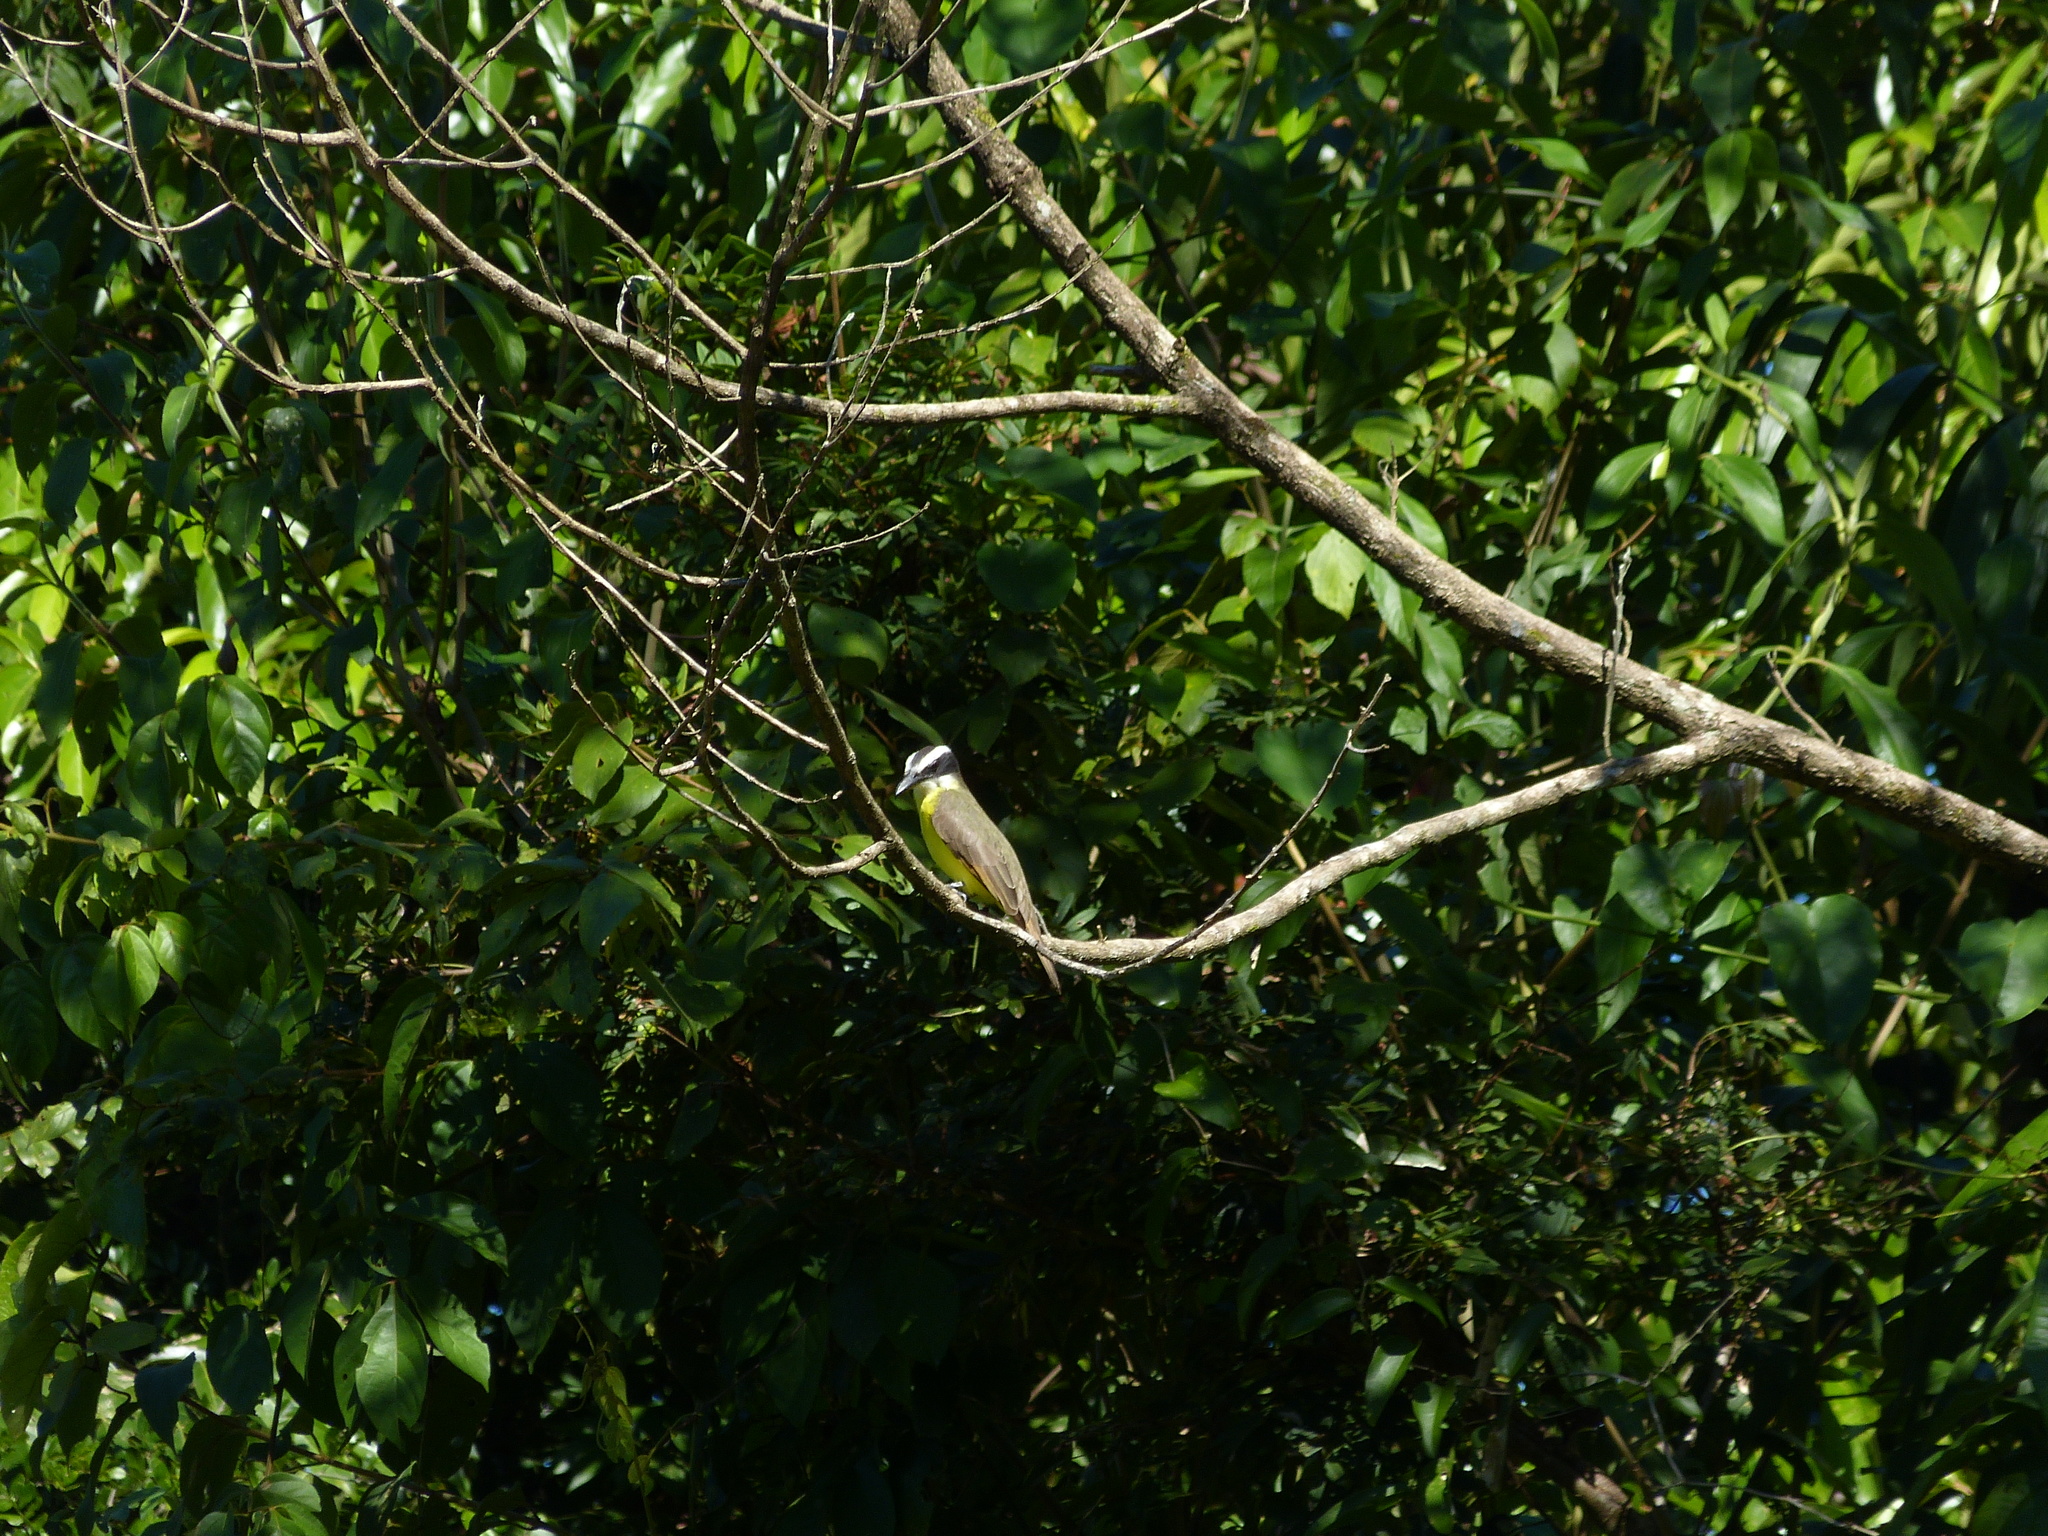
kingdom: Animalia
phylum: Chordata
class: Aves
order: Passeriformes
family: Tyrannidae
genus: Megarynchus
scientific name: Megarynchus pitangua
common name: Boat-billed flycatcher
